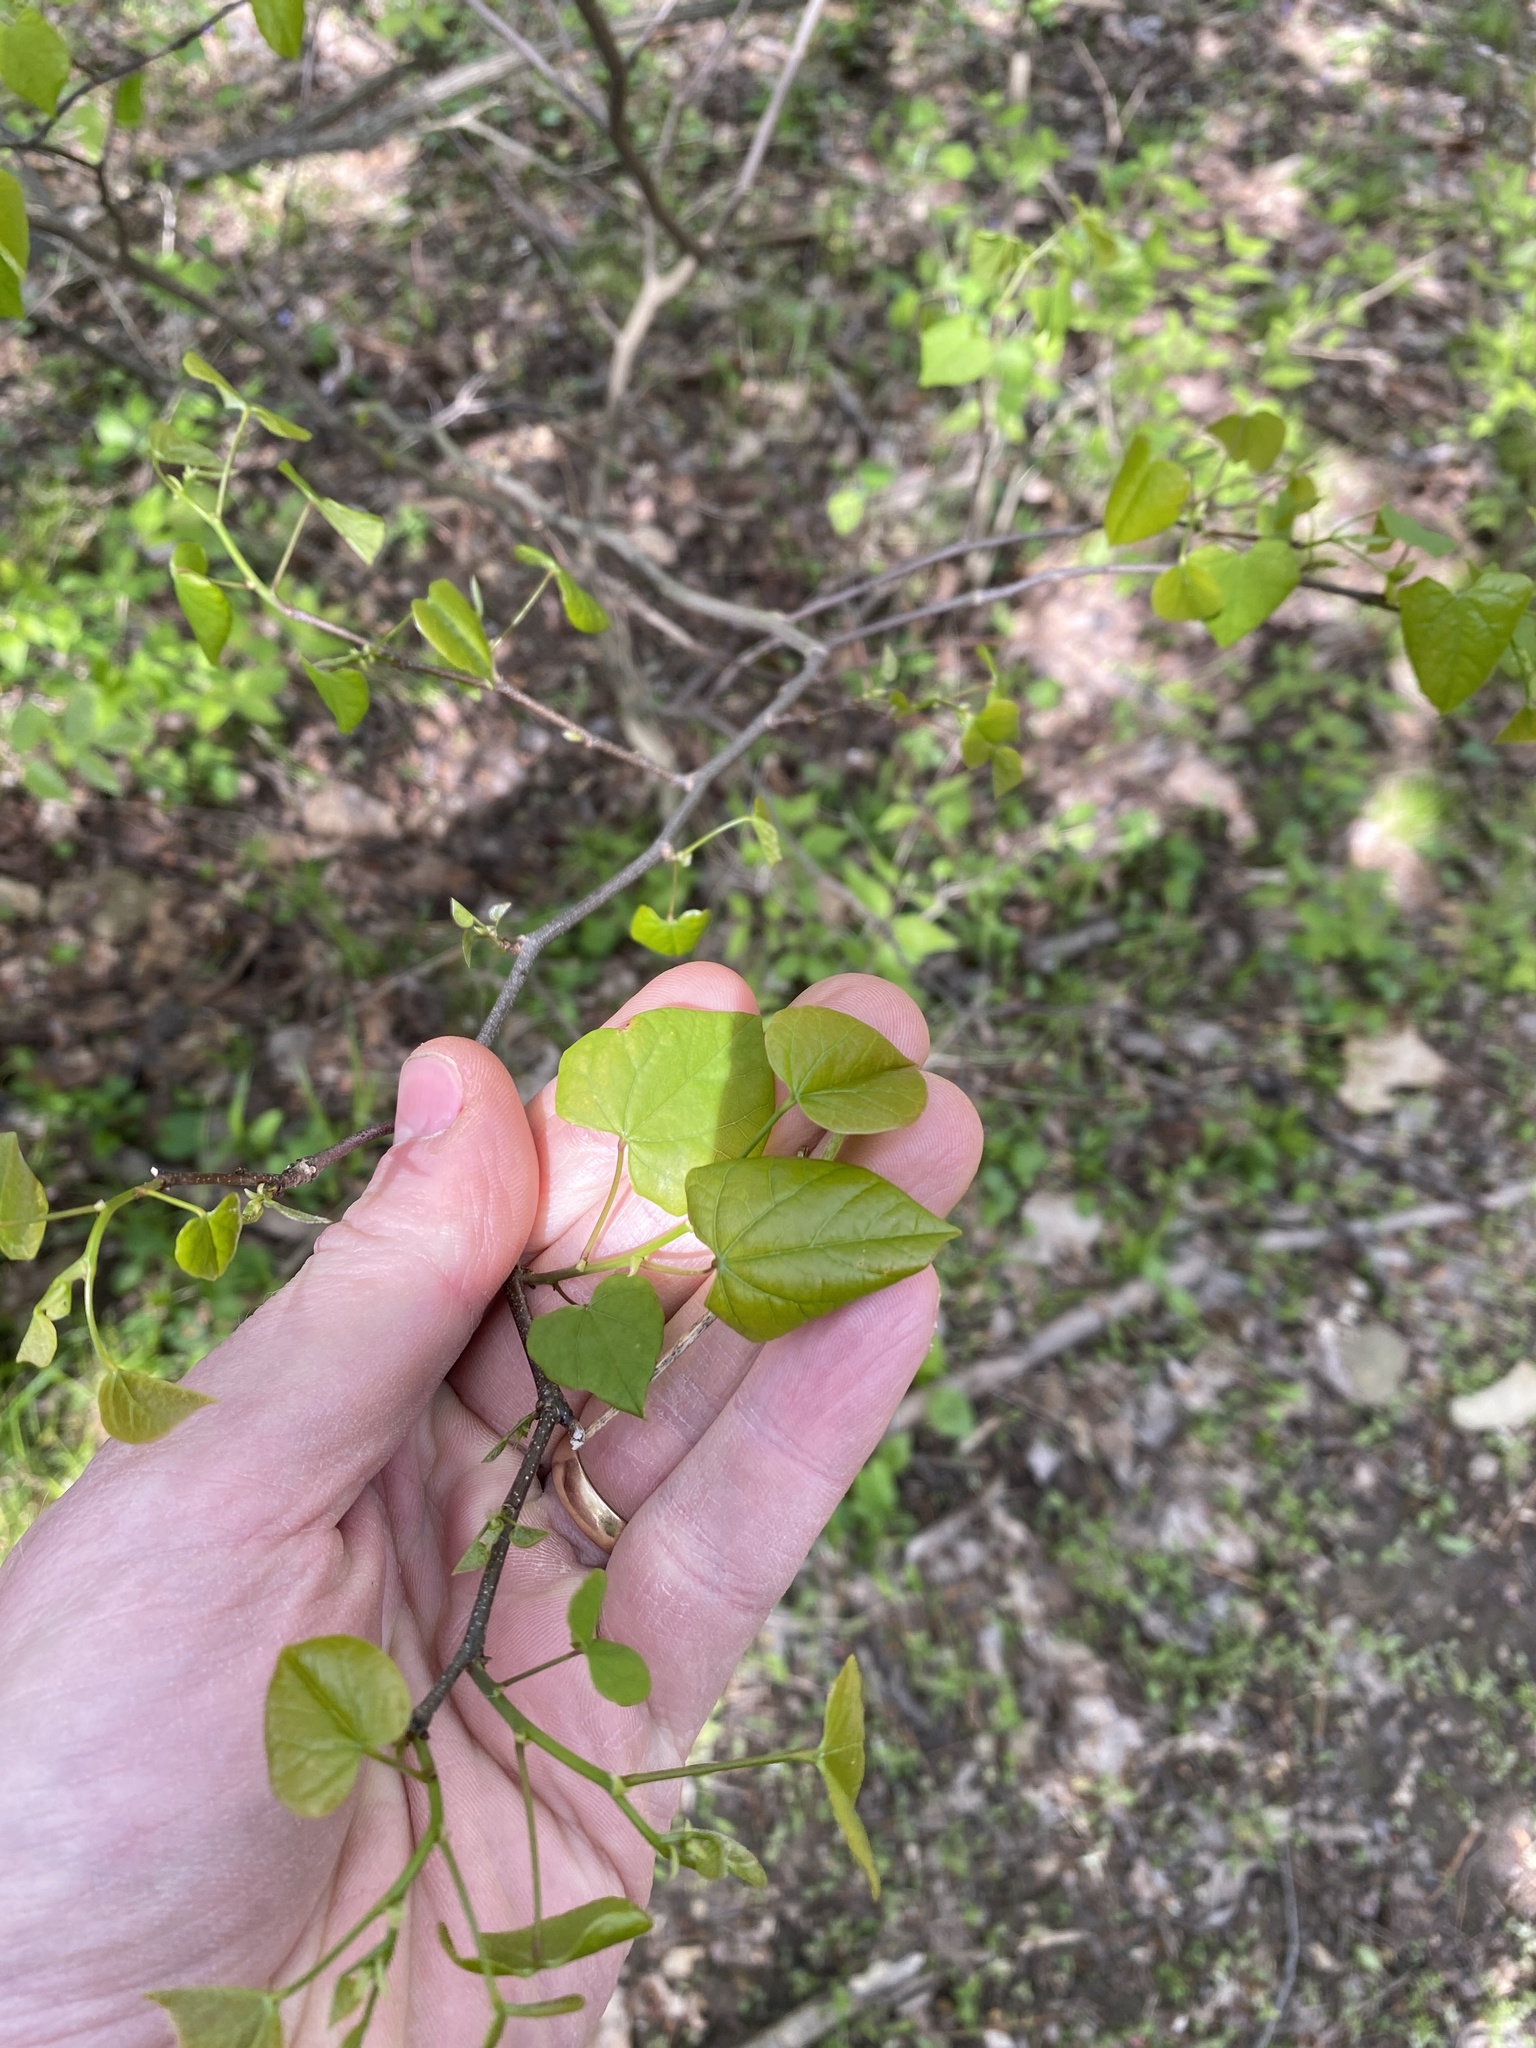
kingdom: Plantae
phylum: Tracheophyta
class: Magnoliopsida
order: Fabales
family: Fabaceae
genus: Cercis
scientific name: Cercis canadensis
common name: Eastern redbud
